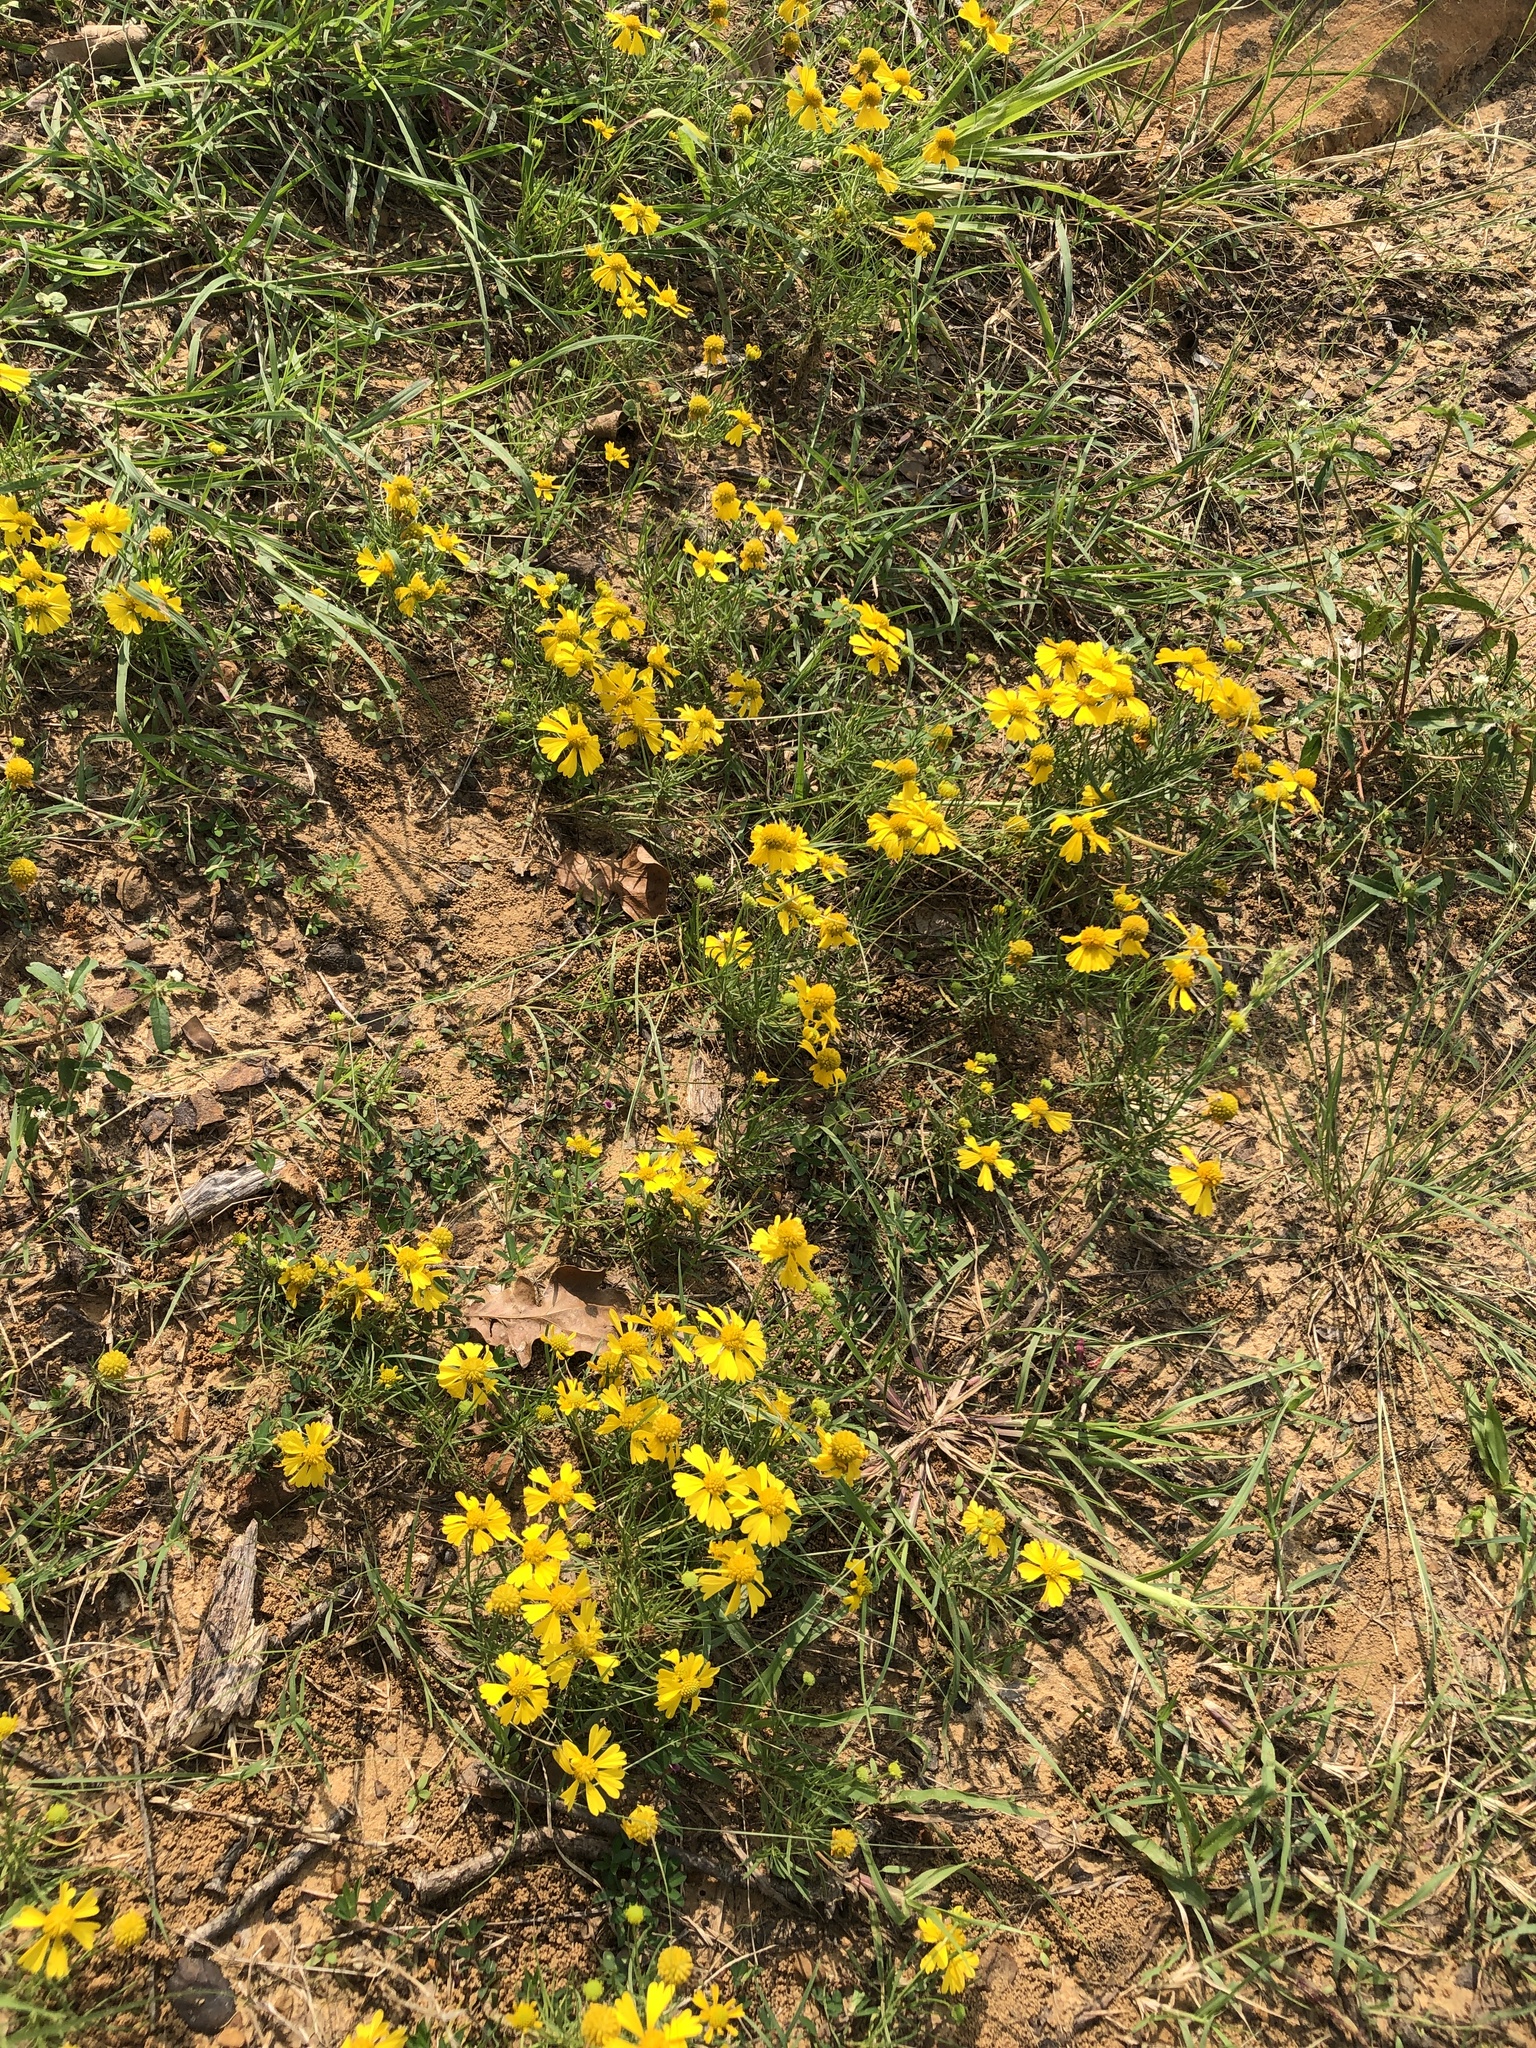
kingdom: Plantae
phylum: Tracheophyta
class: Magnoliopsida
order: Asterales
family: Asteraceae
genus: Helenium
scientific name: Helenium amarum
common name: Bitter sneezeweed
